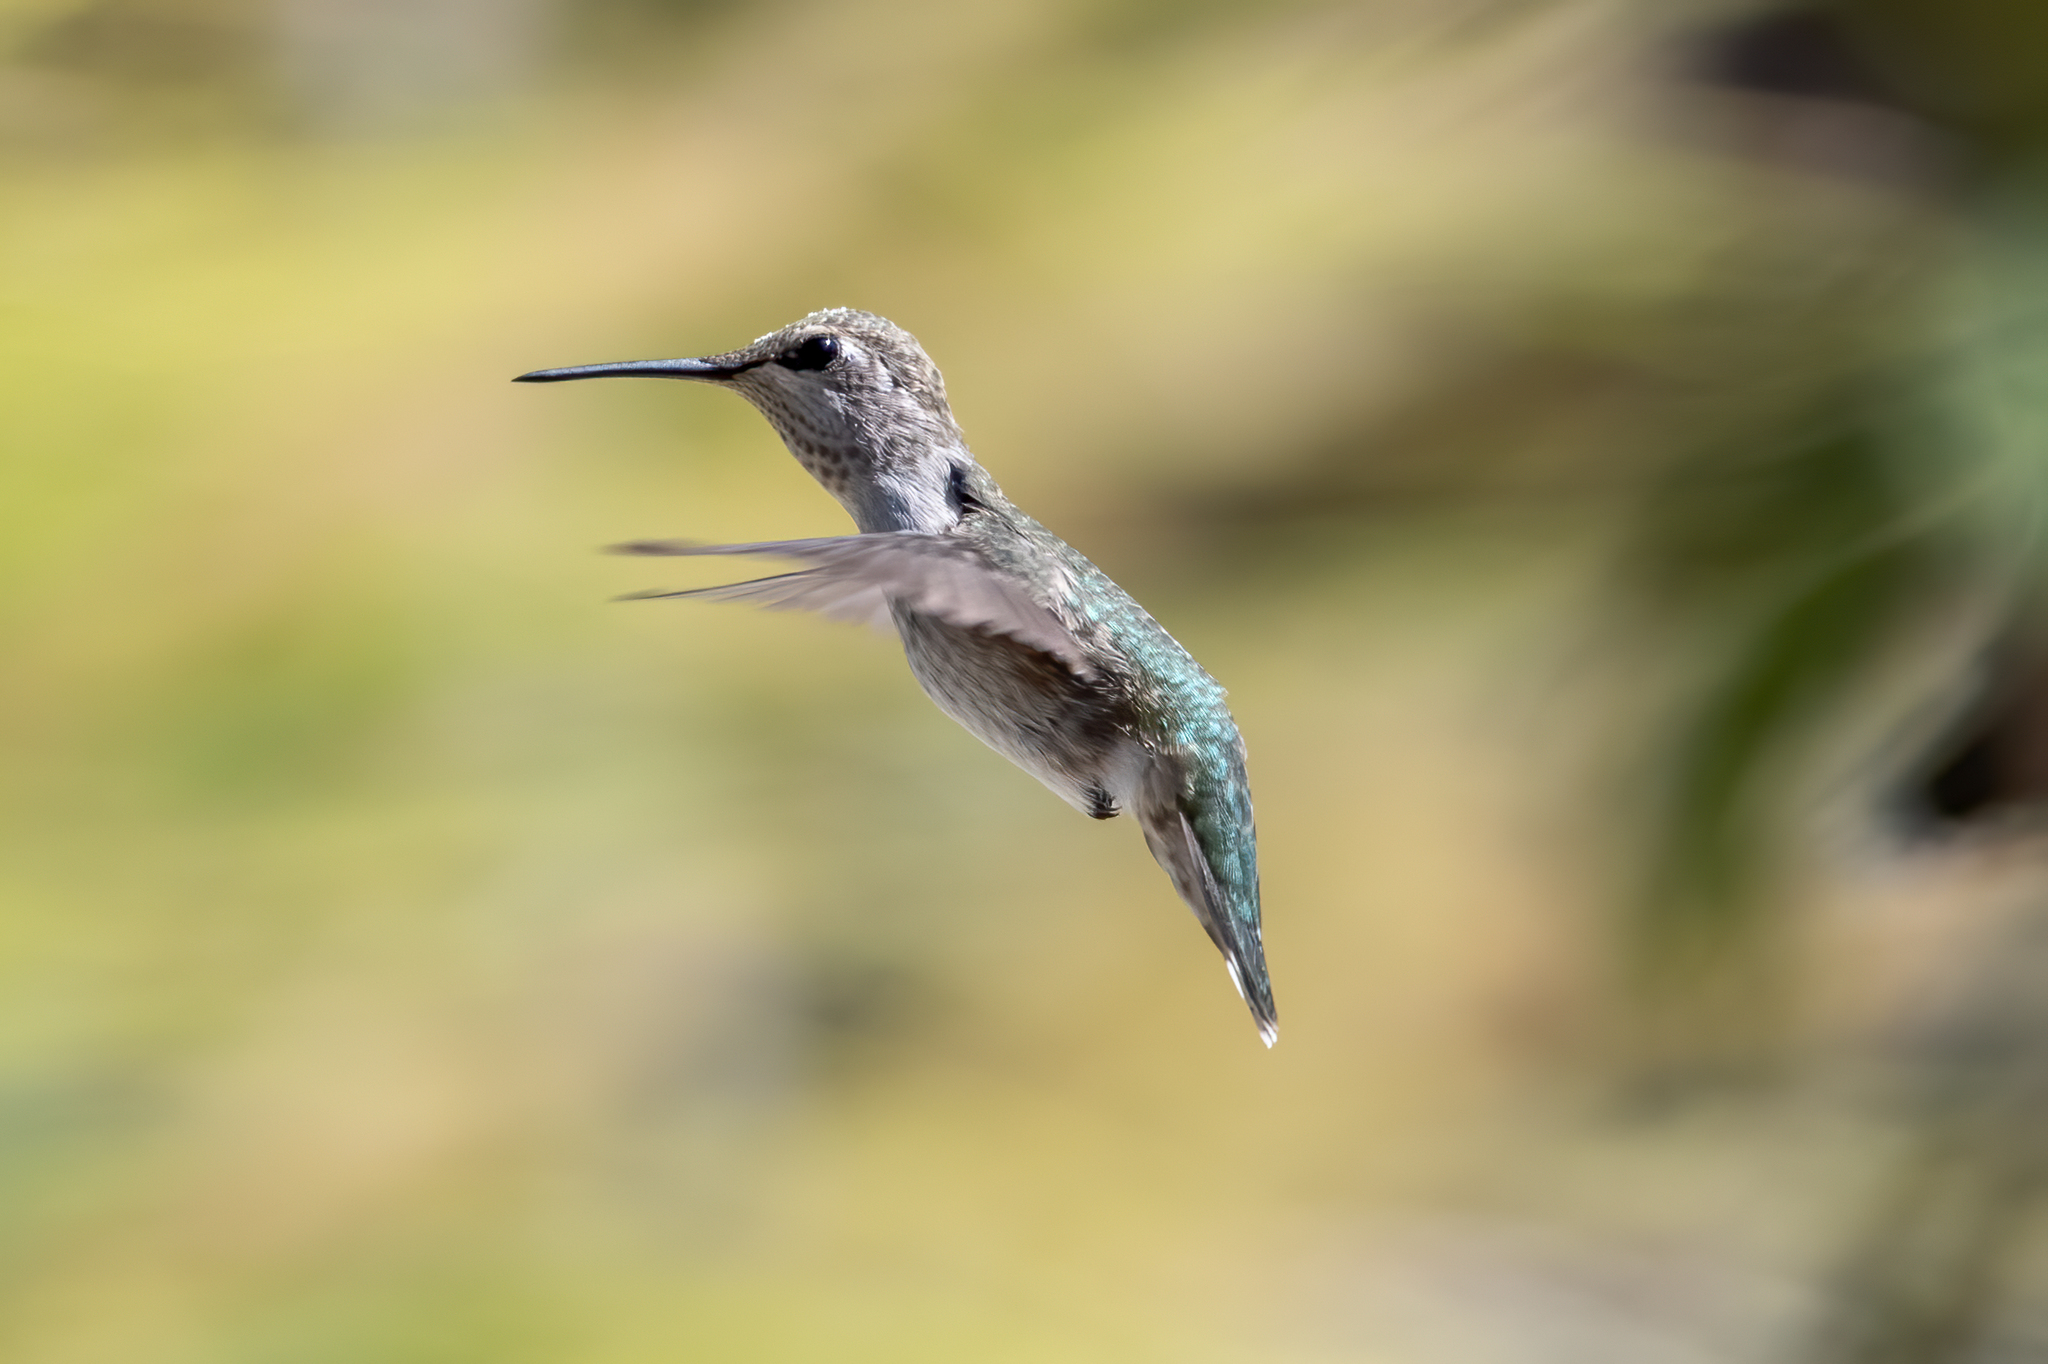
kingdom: Animalia
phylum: Chordata
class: Aves
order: Apodiformes
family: Trochilidae
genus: Calypte
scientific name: Calypte anna
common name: Anna's hummingbird
